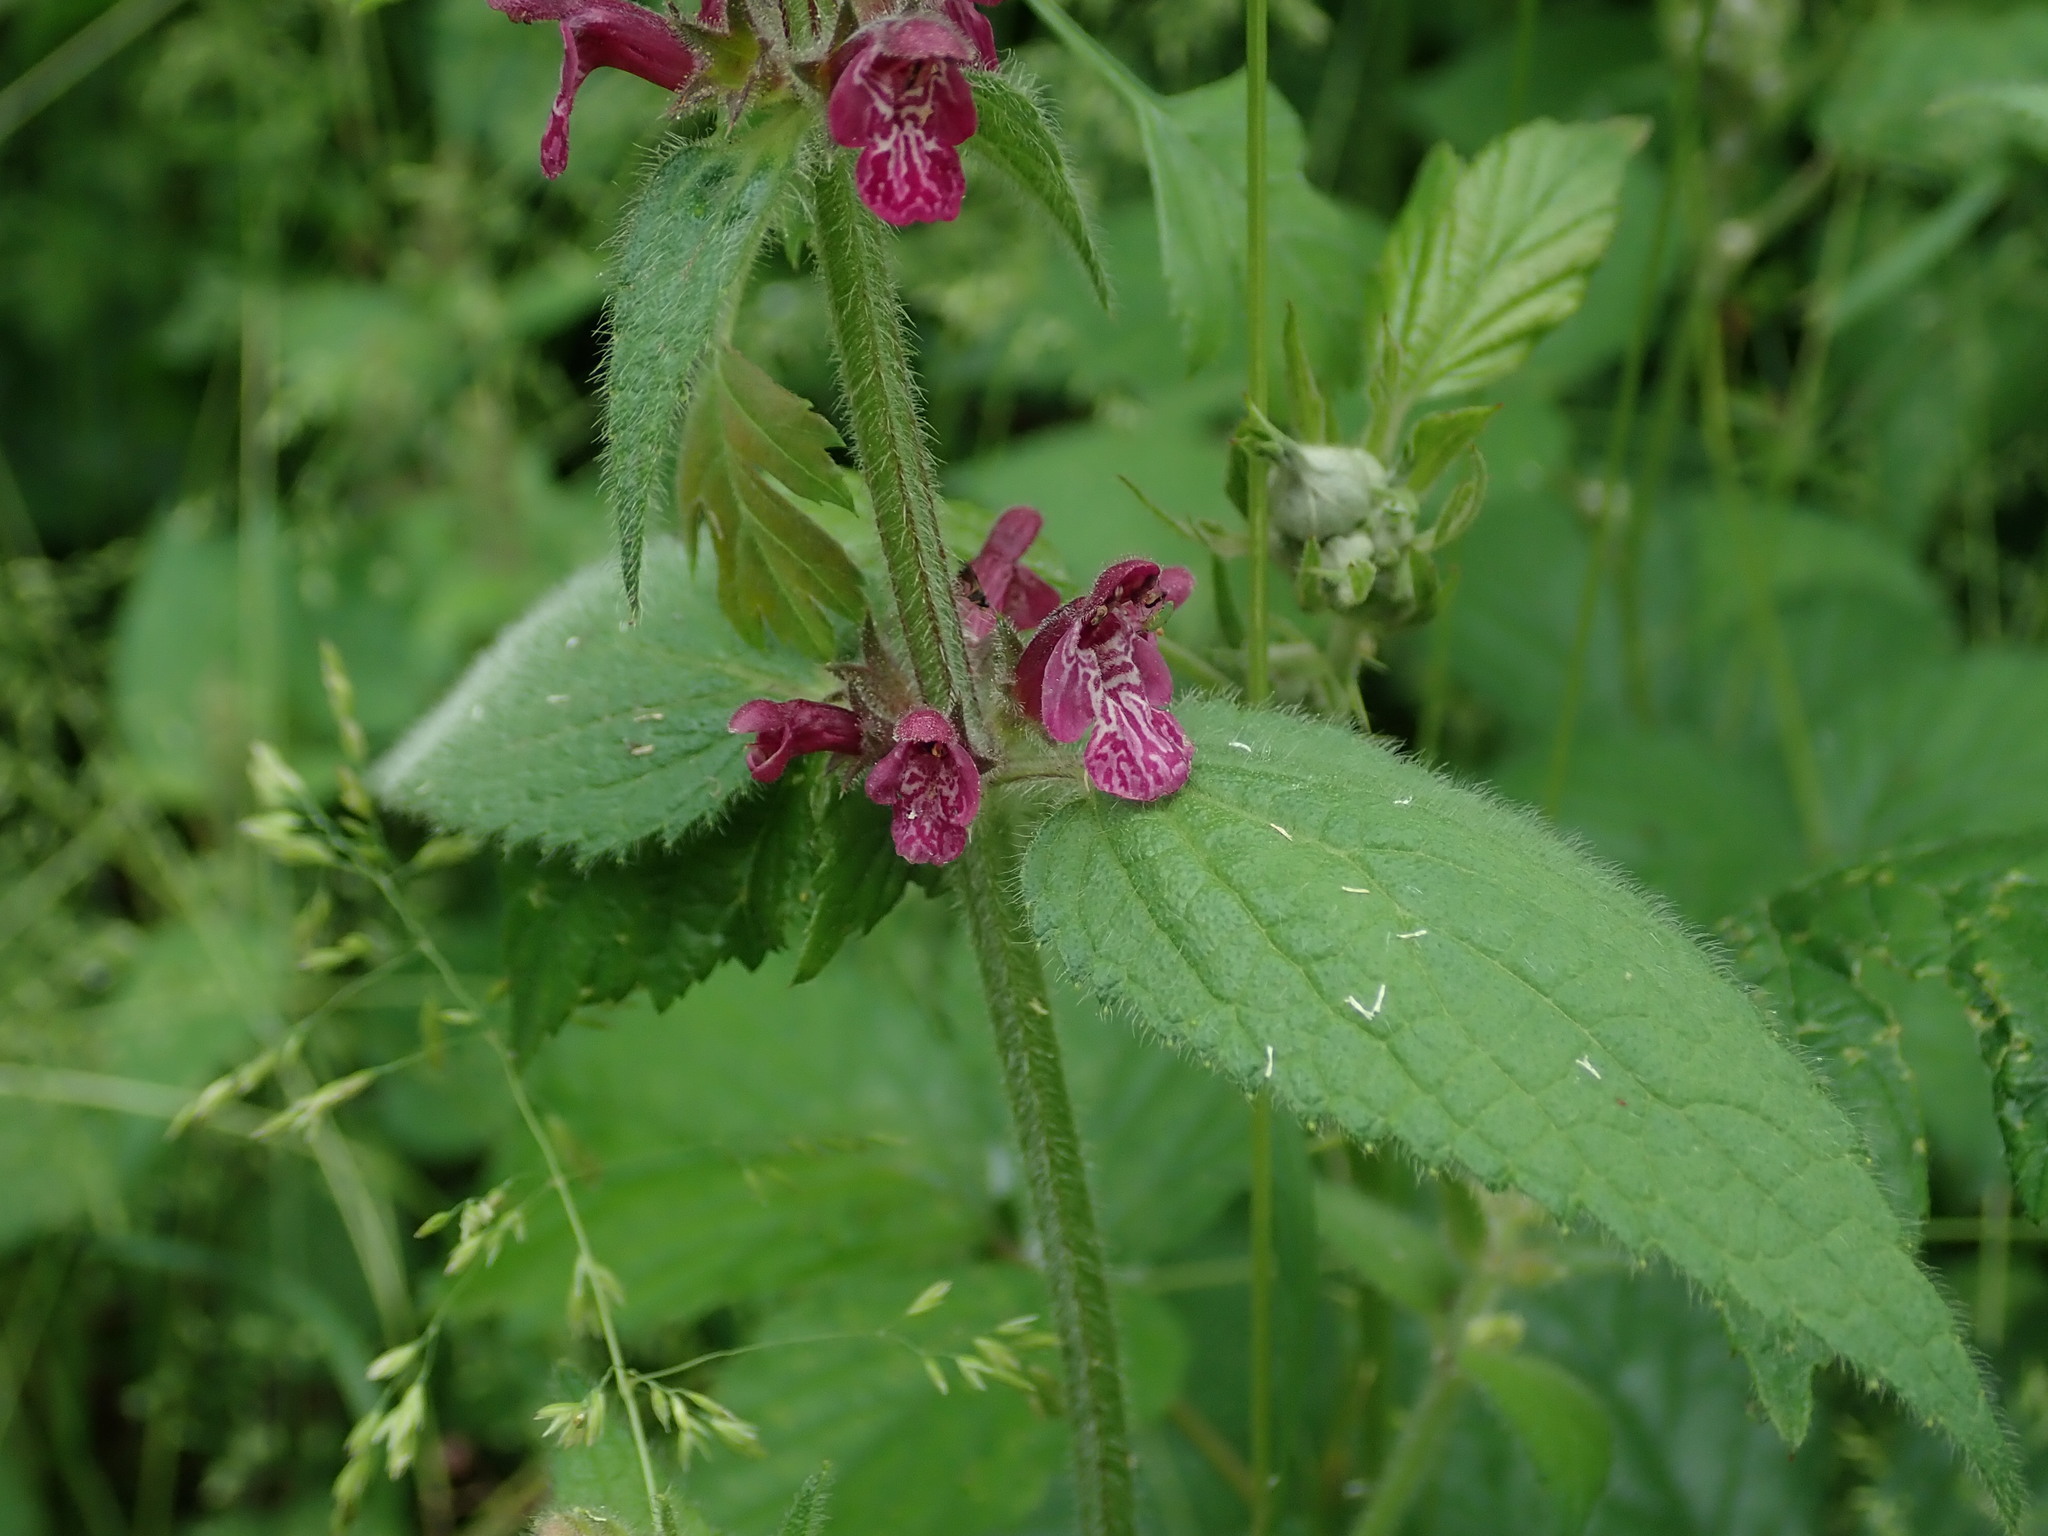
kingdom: Plantae
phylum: Tracheophyta
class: Magnoliopsida
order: Lamiales
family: Lamiaceae
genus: Stachys
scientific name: Stachys sylvatica
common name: Hedge woundwort
